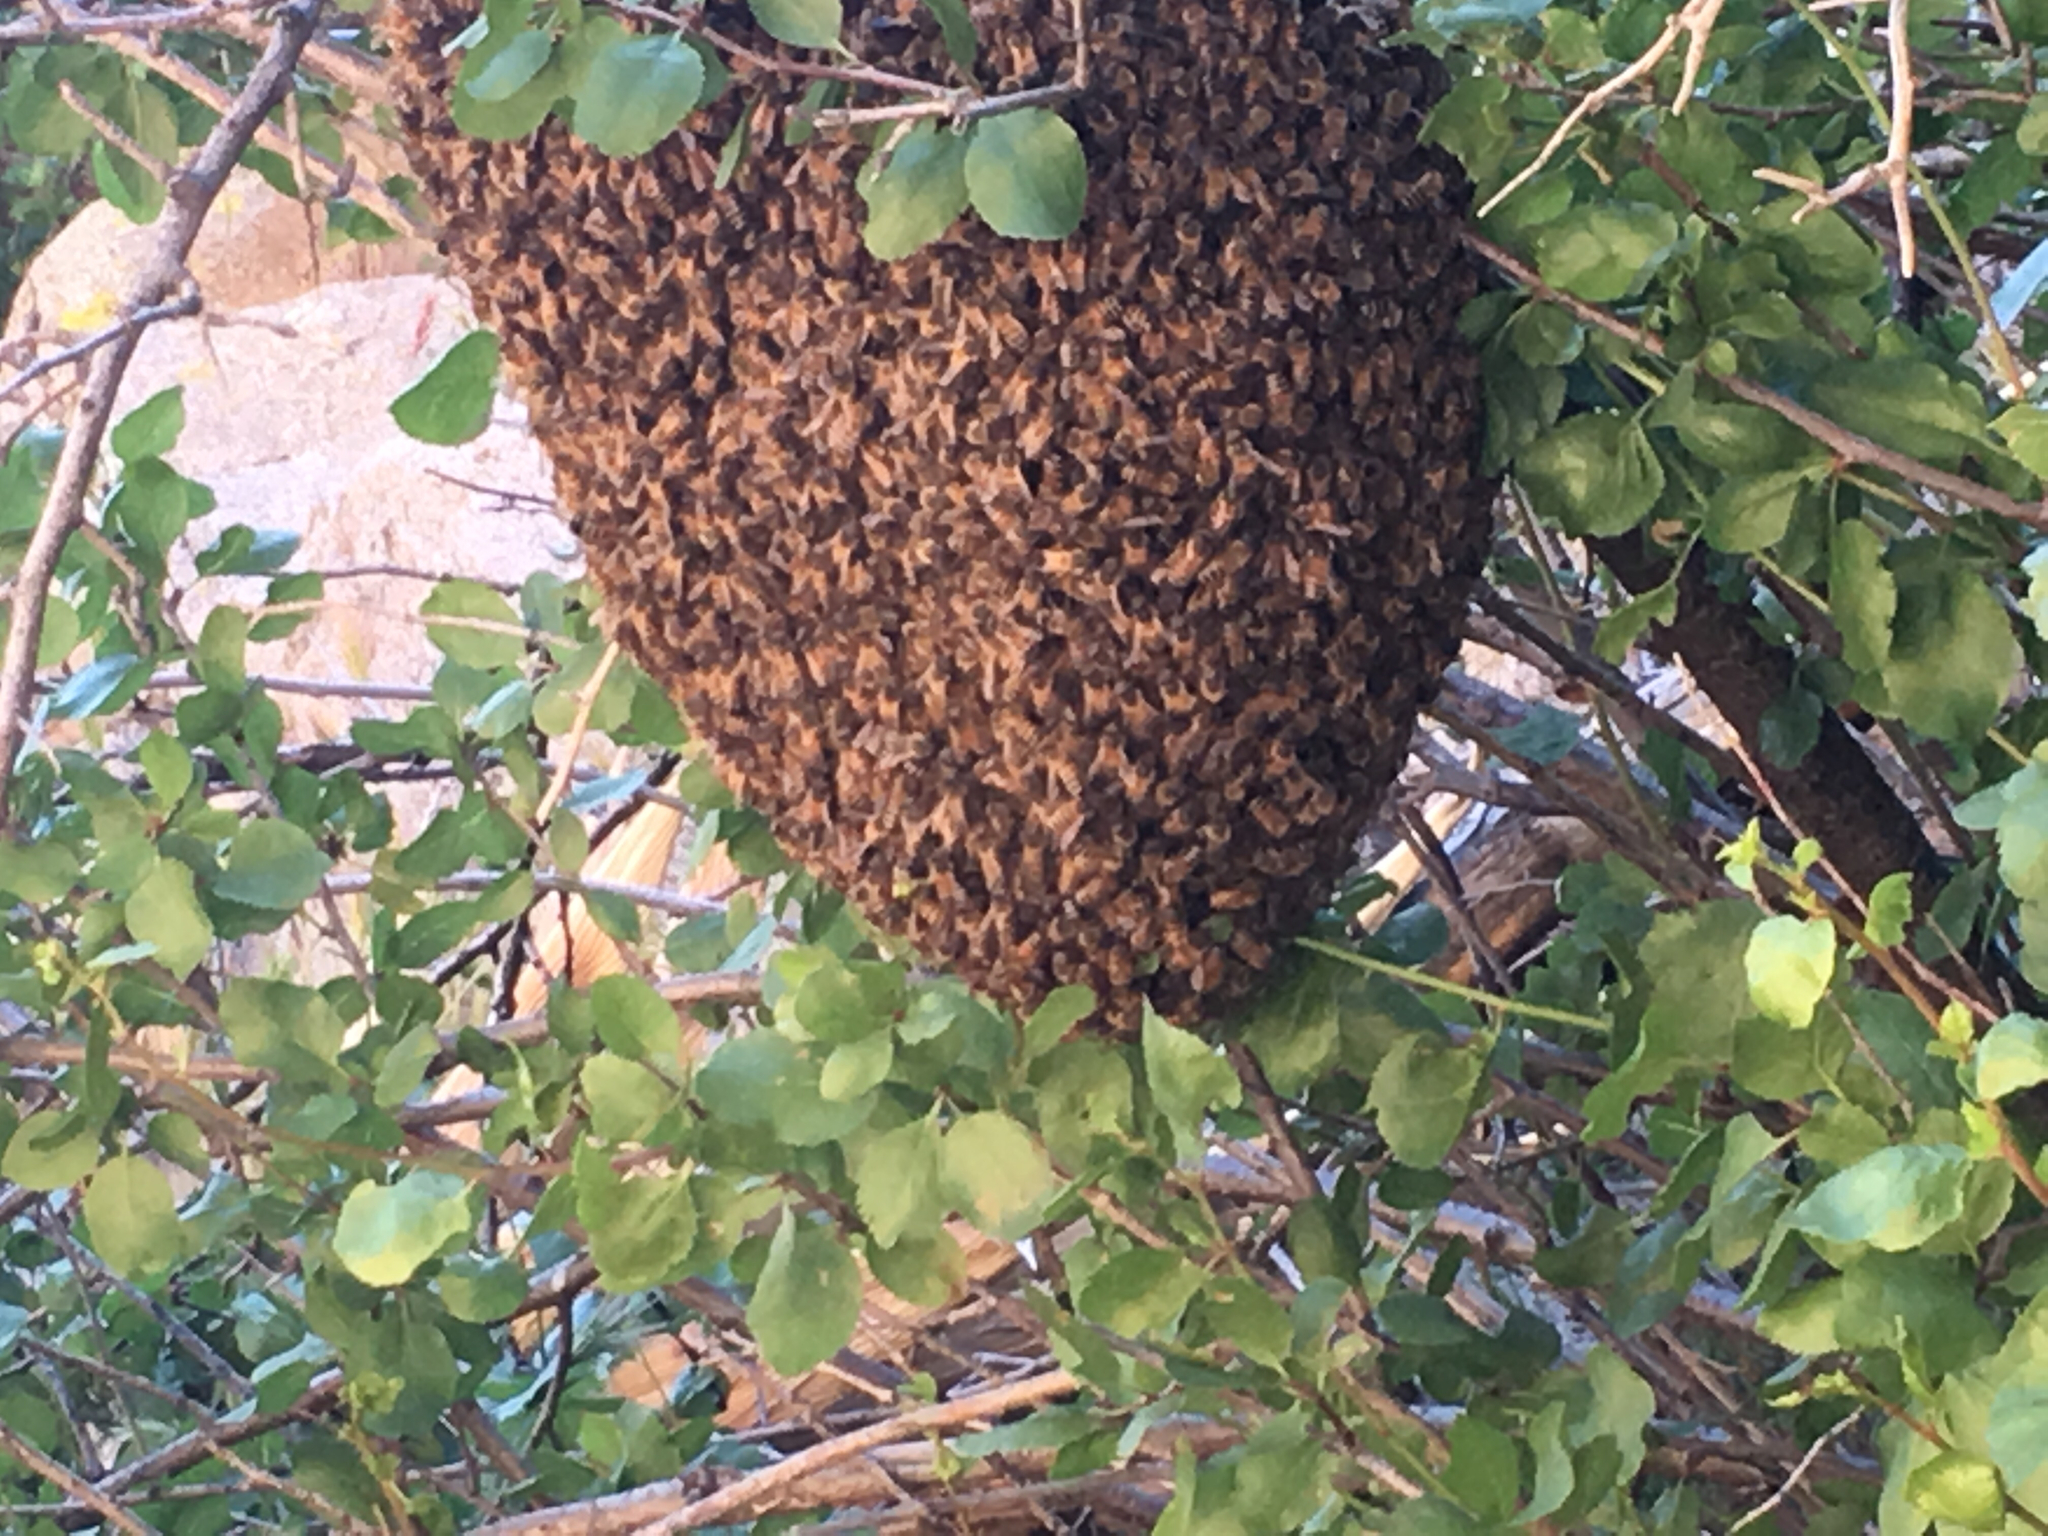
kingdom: Animalia
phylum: Arthropoda
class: Insecta
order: Hymenoptera
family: Apidae
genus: Apis
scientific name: Apis mellifera
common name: Honey bee
